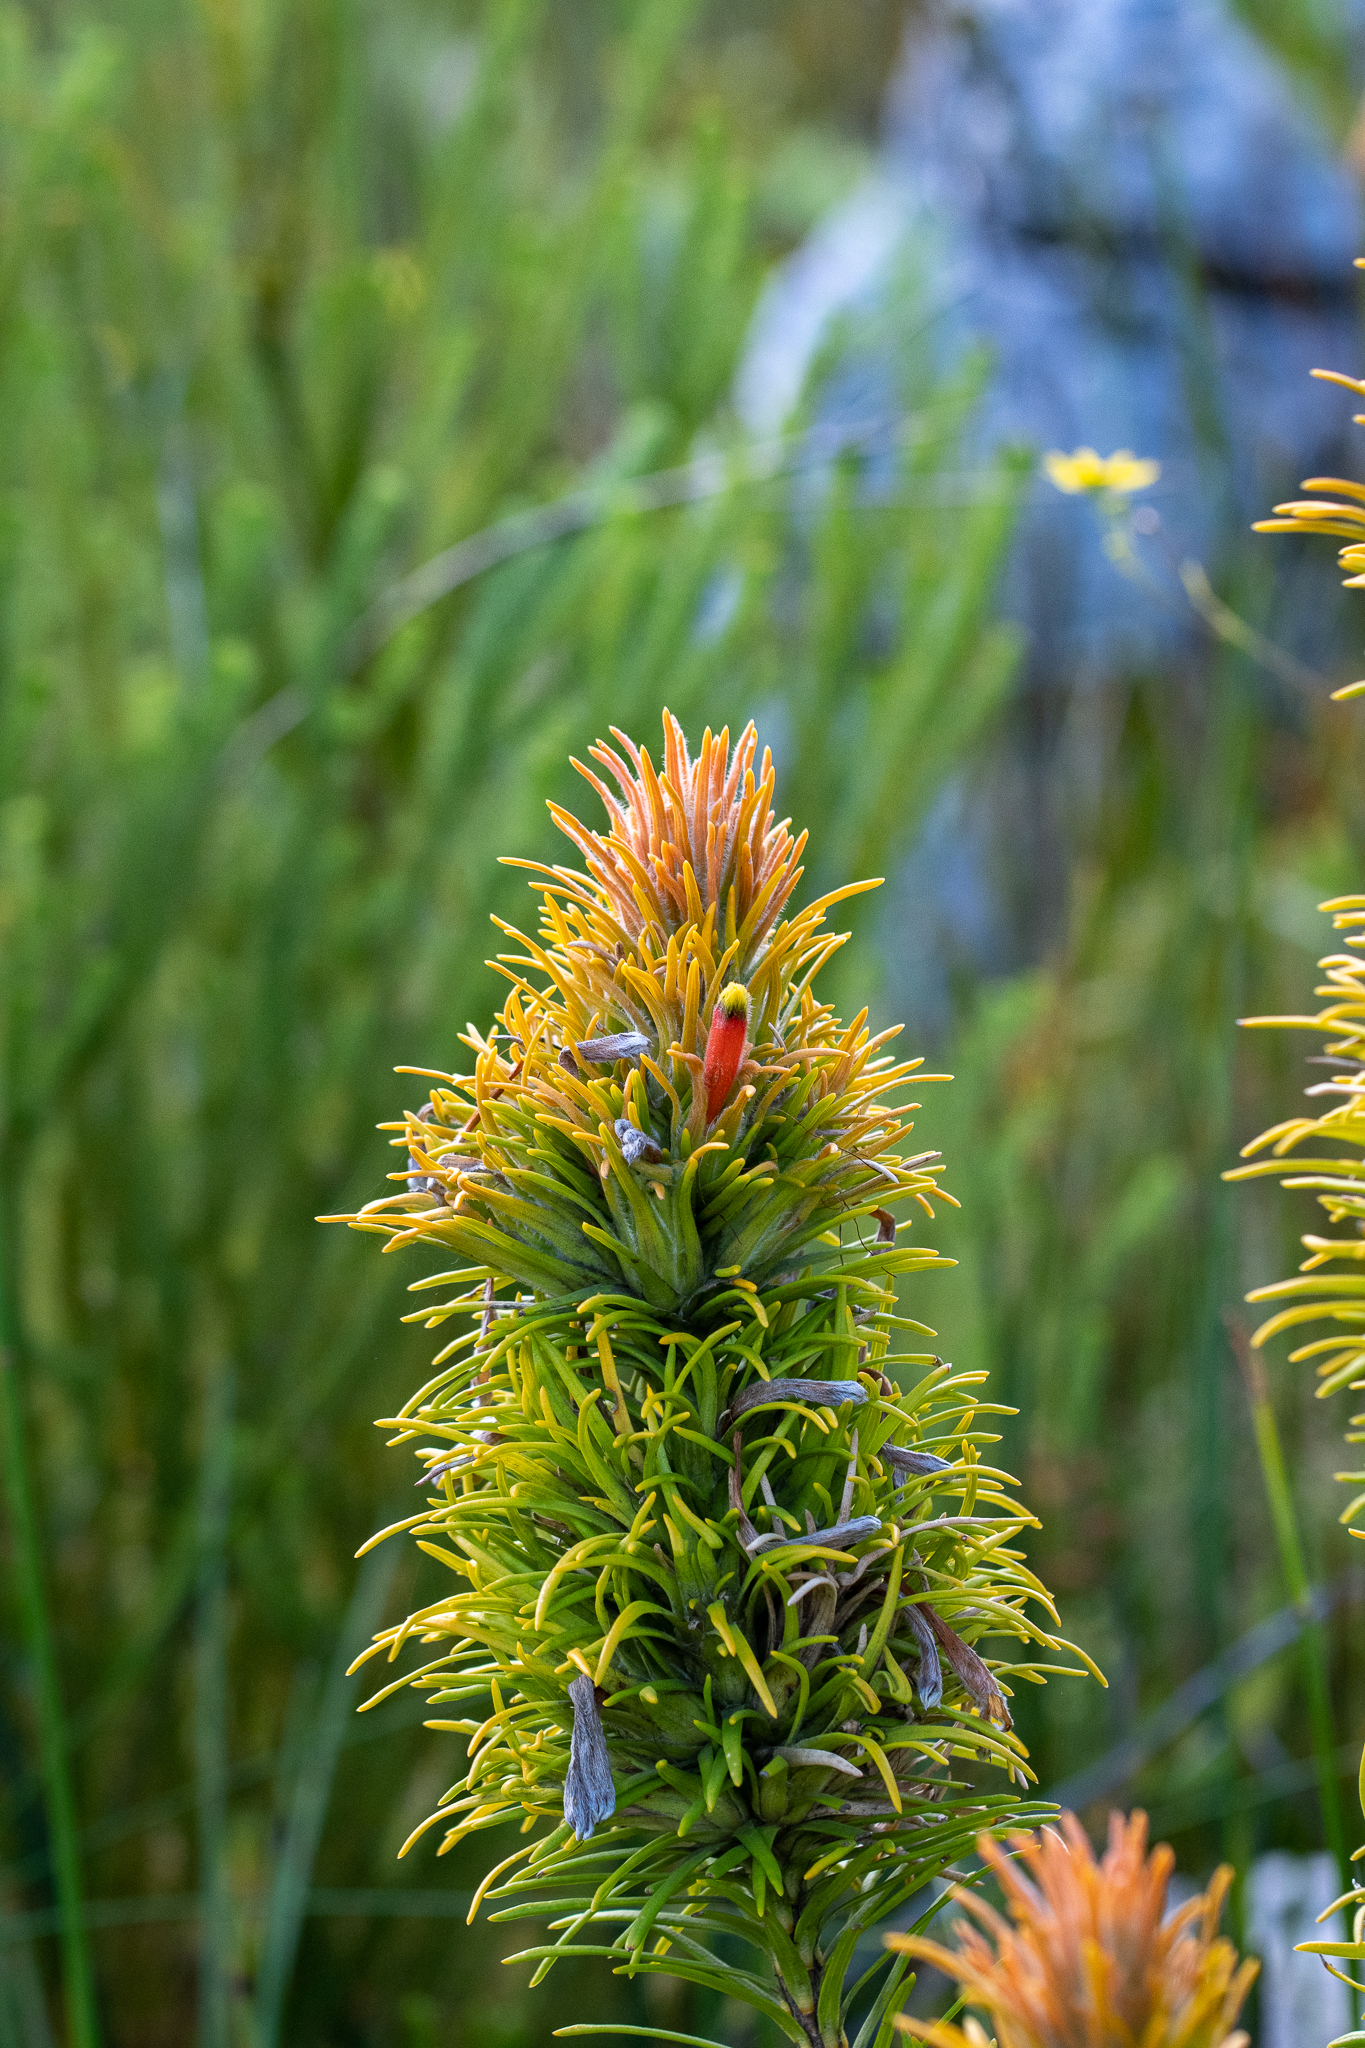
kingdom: Plantae
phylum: Tracheophyta
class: Magnoliopsida
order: Lamiales
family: Stilbaceae
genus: Retzia
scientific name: Retzia capensis
